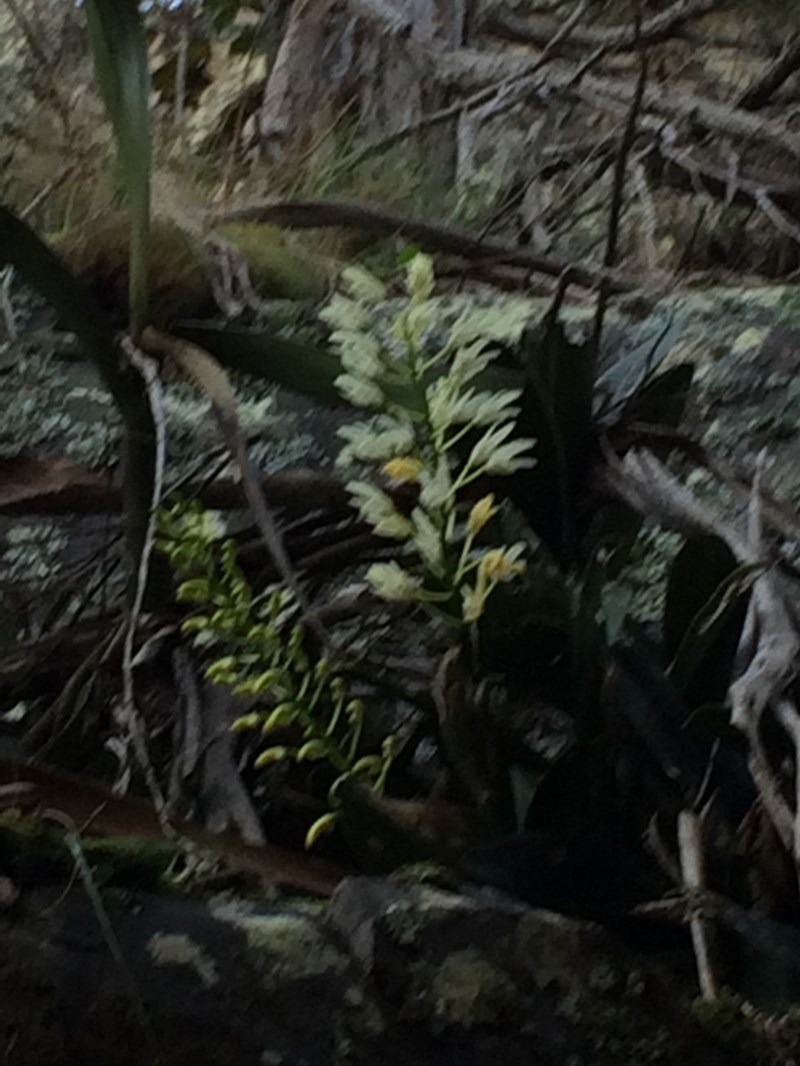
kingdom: Plantae
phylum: Tracheophyta
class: Liliopsida
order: Asparagales
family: Orchidaceae
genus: Dendrobium
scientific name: Dendrobium speciosum
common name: Rock-lily
